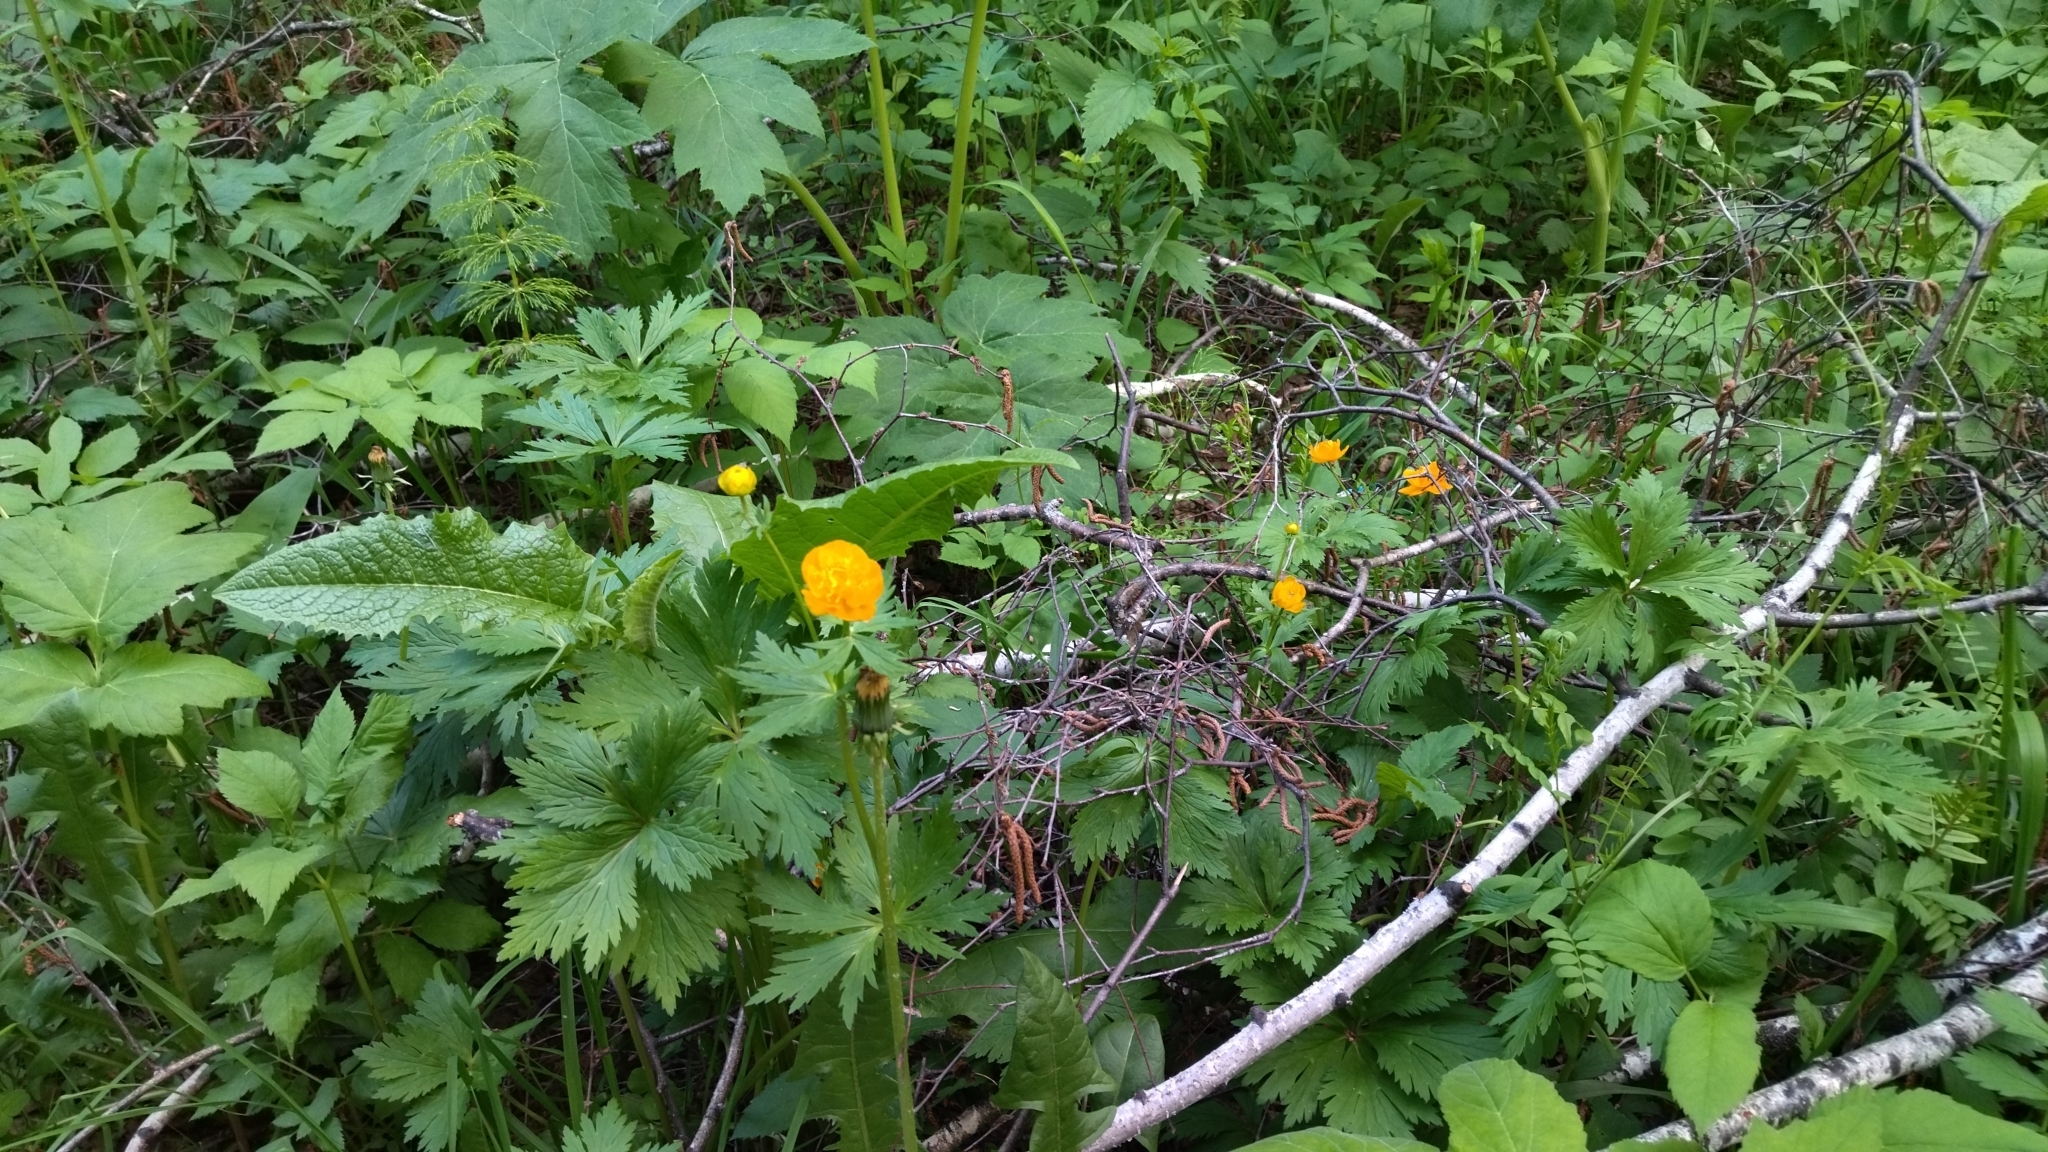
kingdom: Plantae
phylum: Tracheophyta
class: Magnoliopsida
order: Ranunculales
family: Ranunculaceae
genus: Trollius
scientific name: Trollius asiaticus
